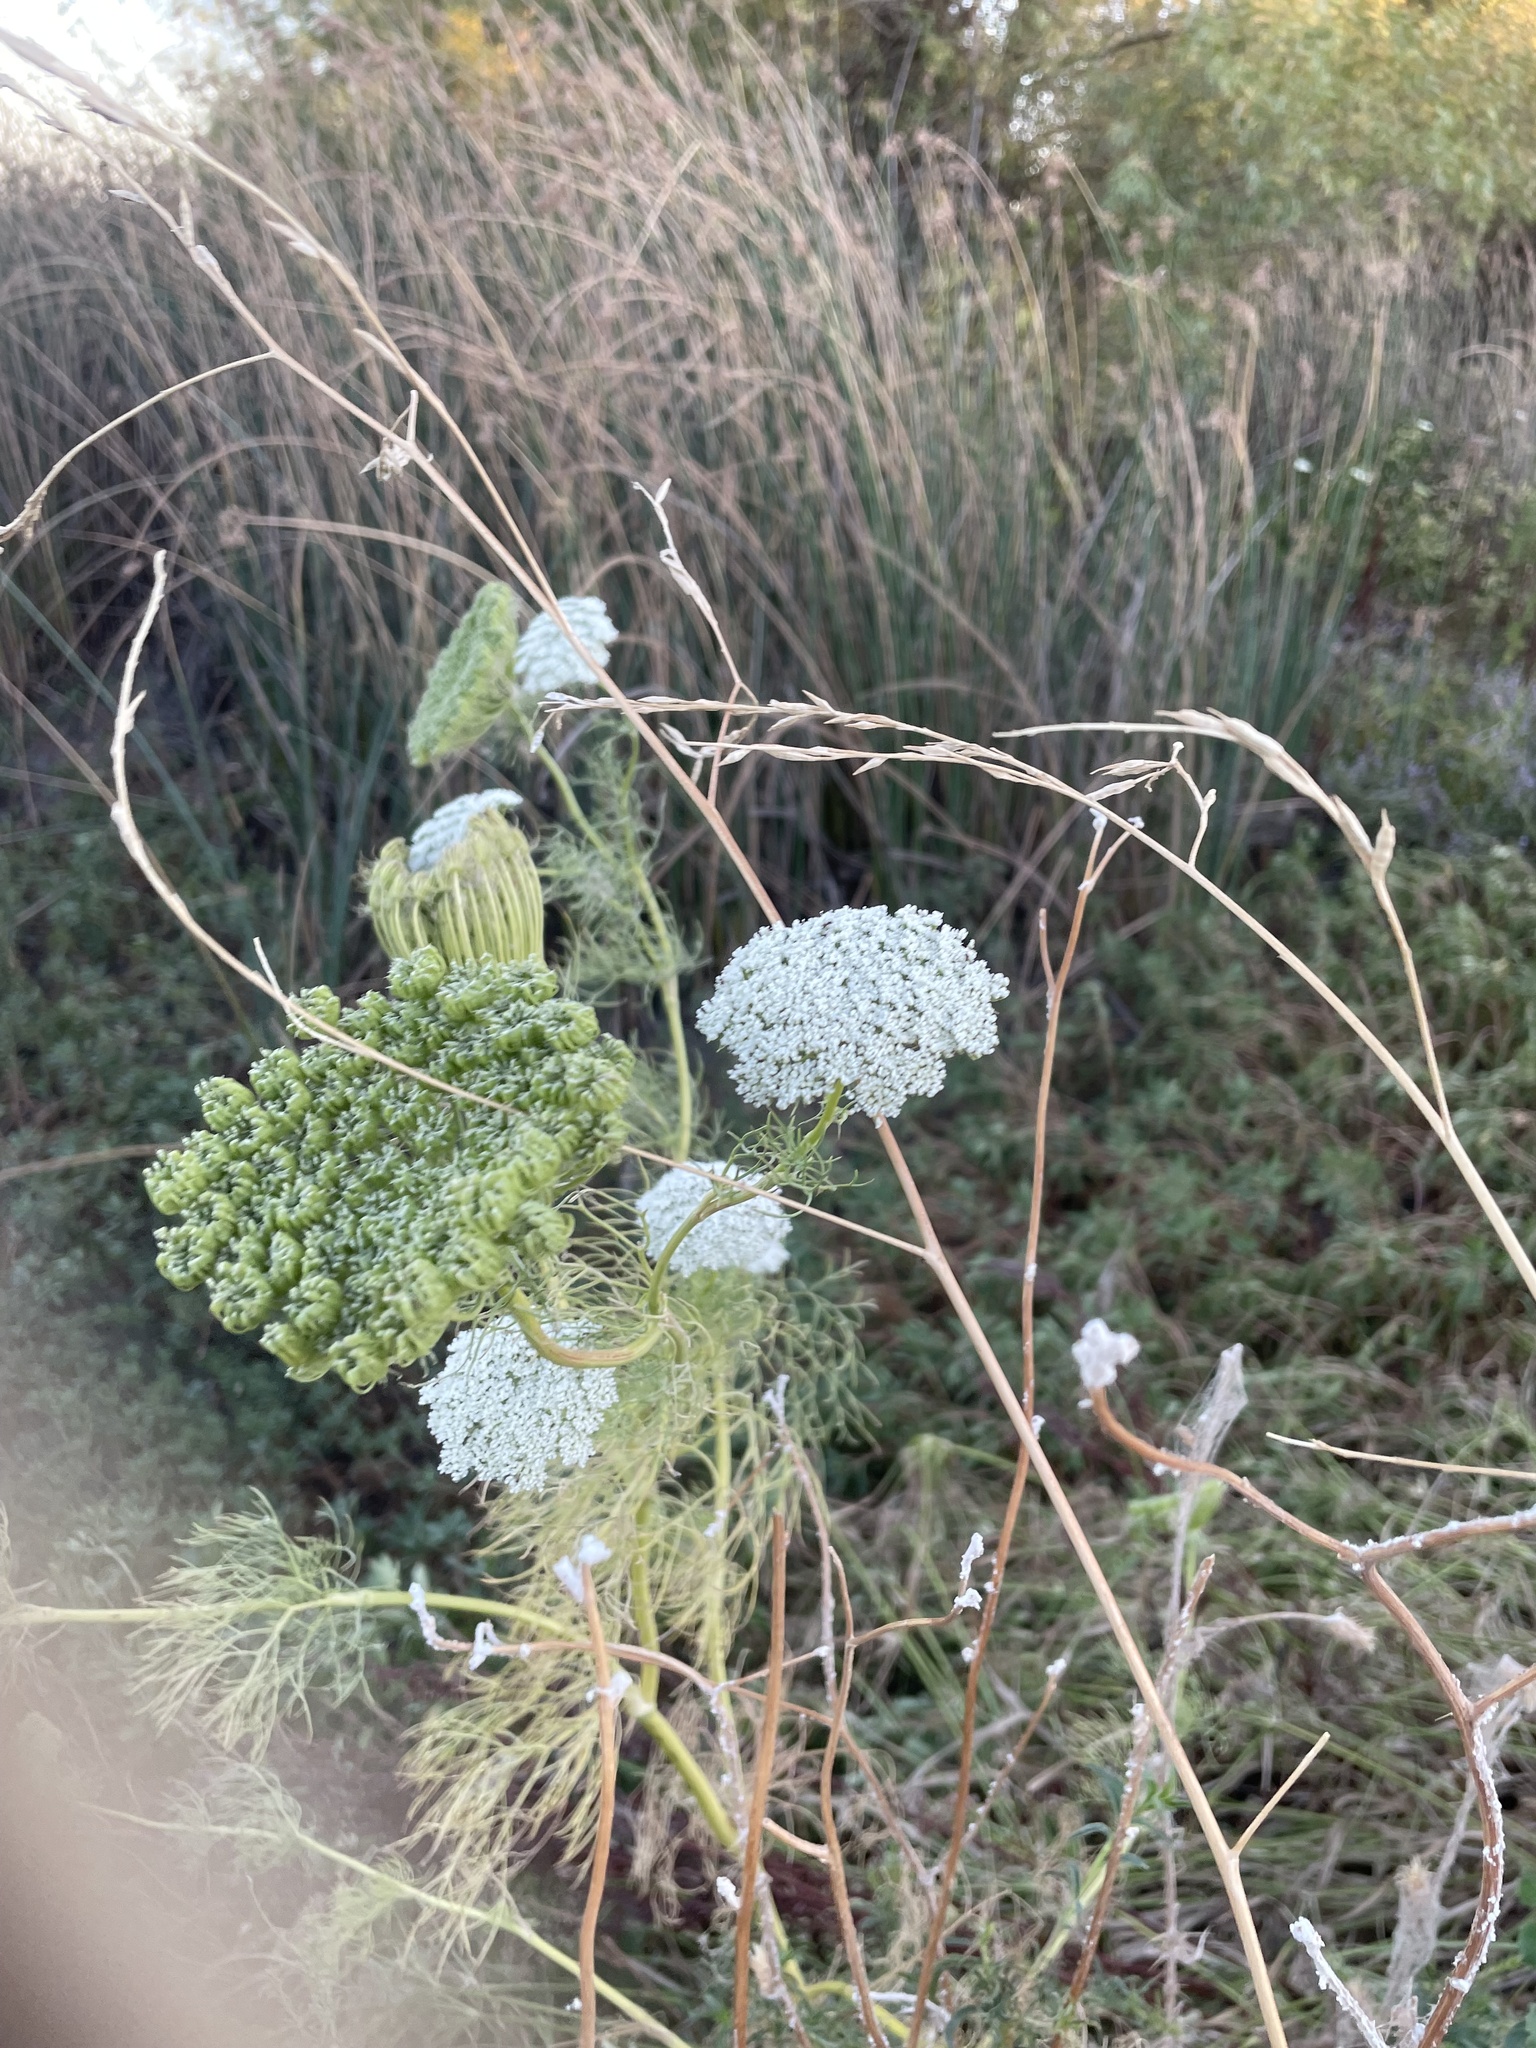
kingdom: Plantae
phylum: Tracheophyta
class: Magnoliopsida
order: Apiales
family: Apiaceae
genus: Visnaga
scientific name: Visnaga daucoides
